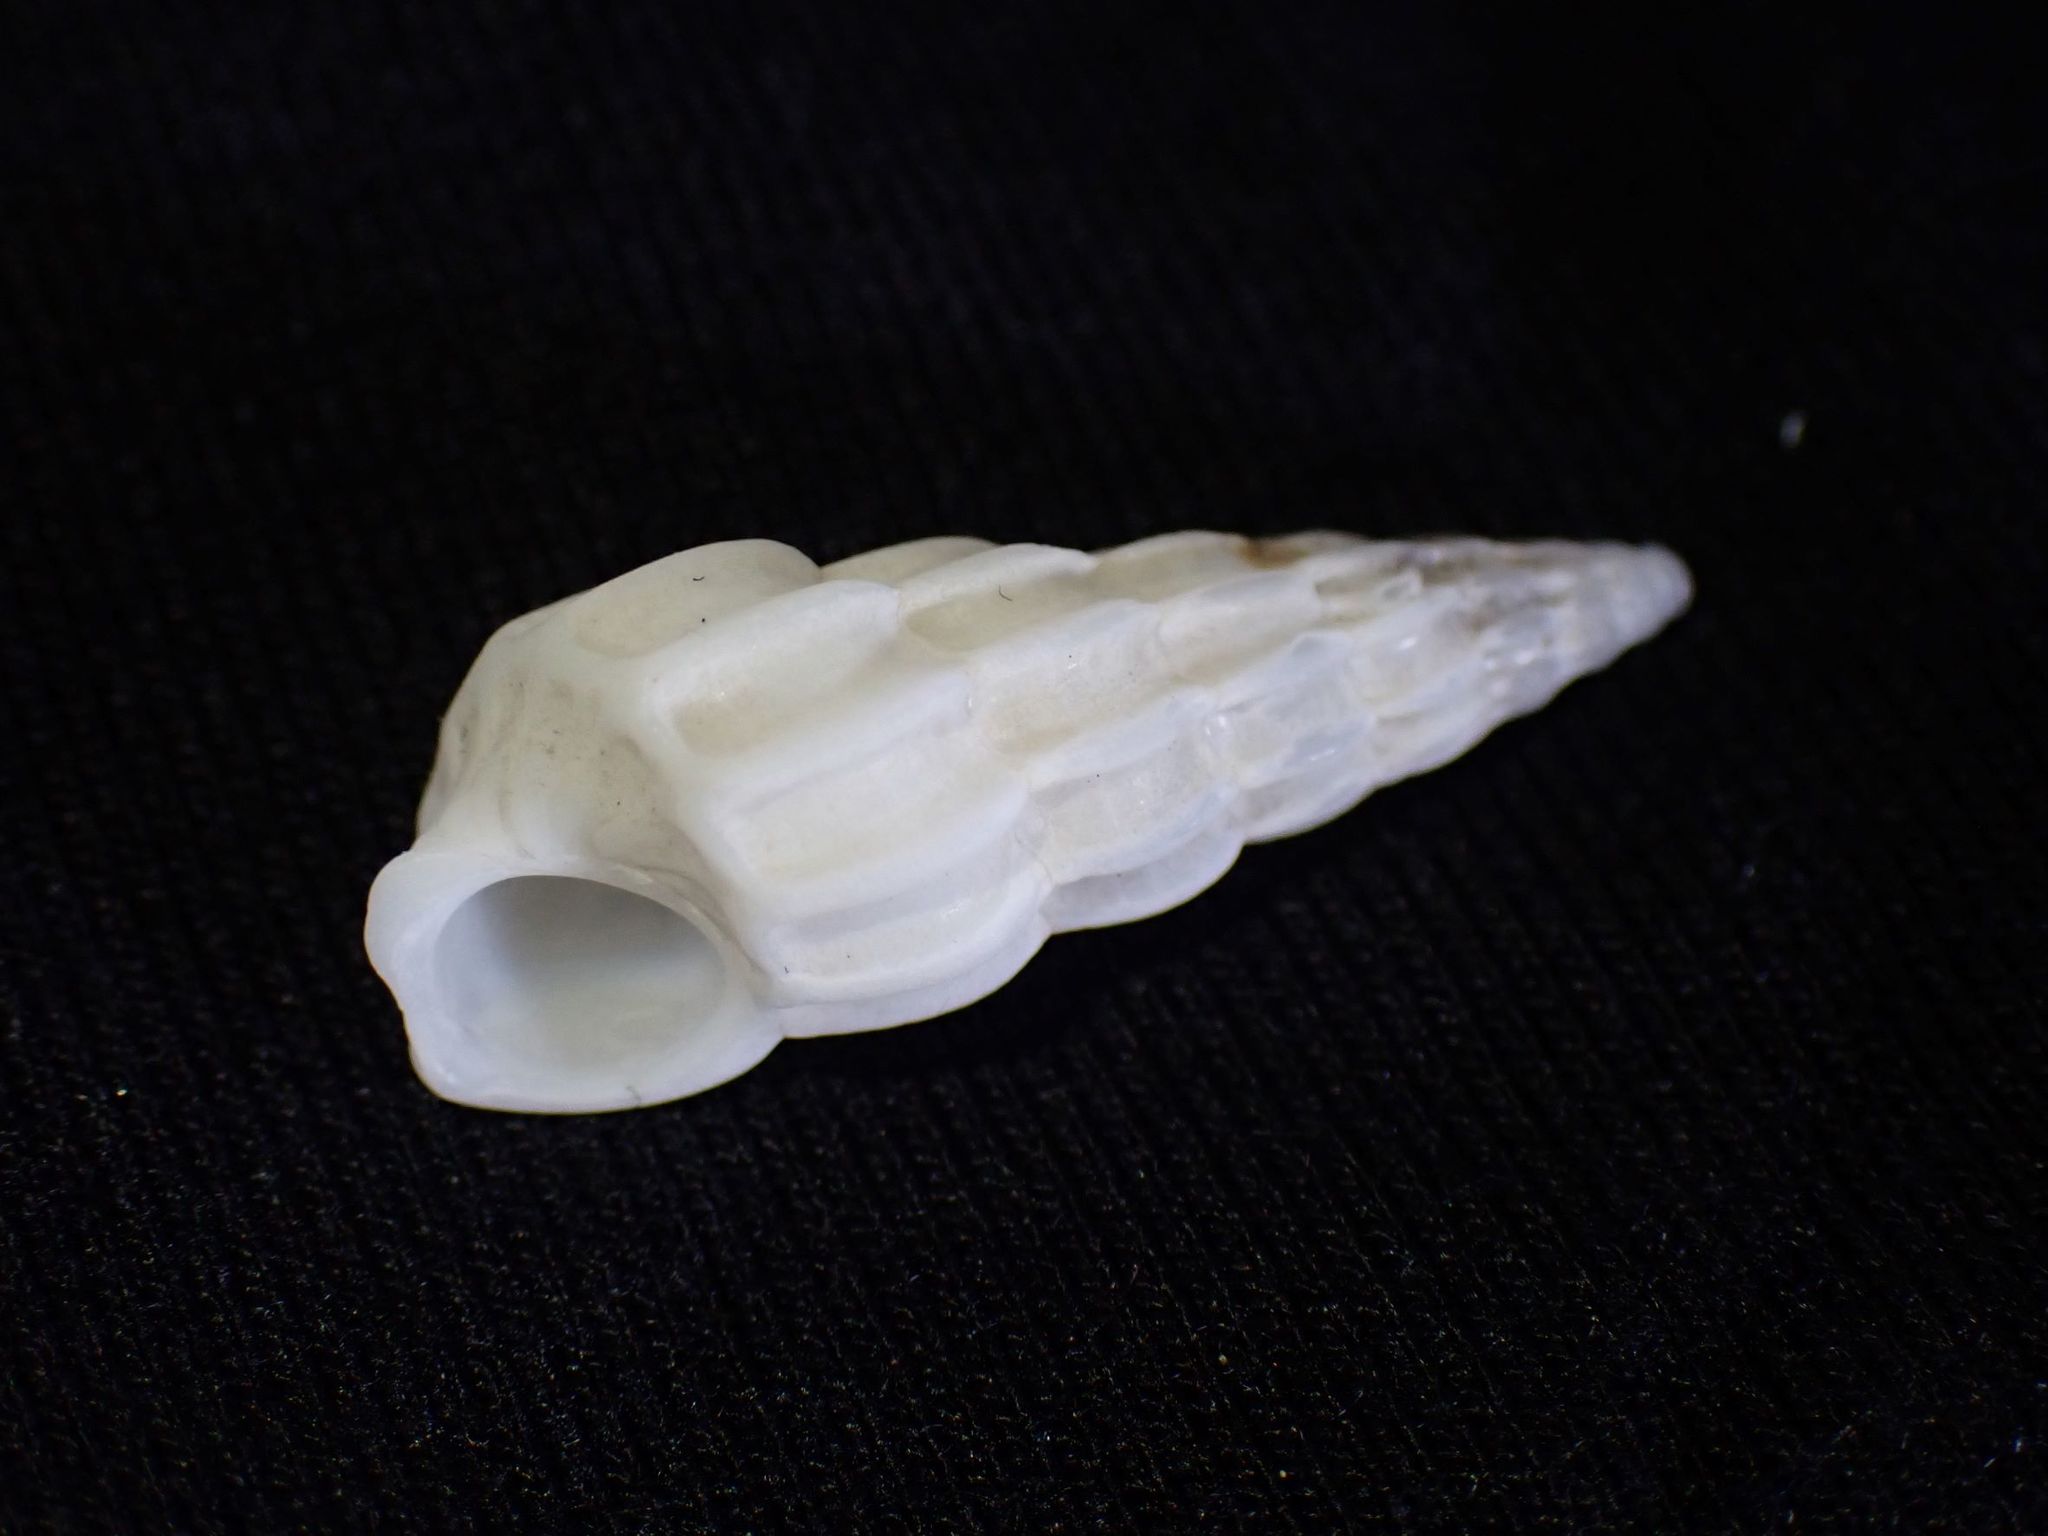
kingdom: Animalia
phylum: Mollusca
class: Gastropoda
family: Epitoniidae
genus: Opalia
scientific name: Opalia australis
